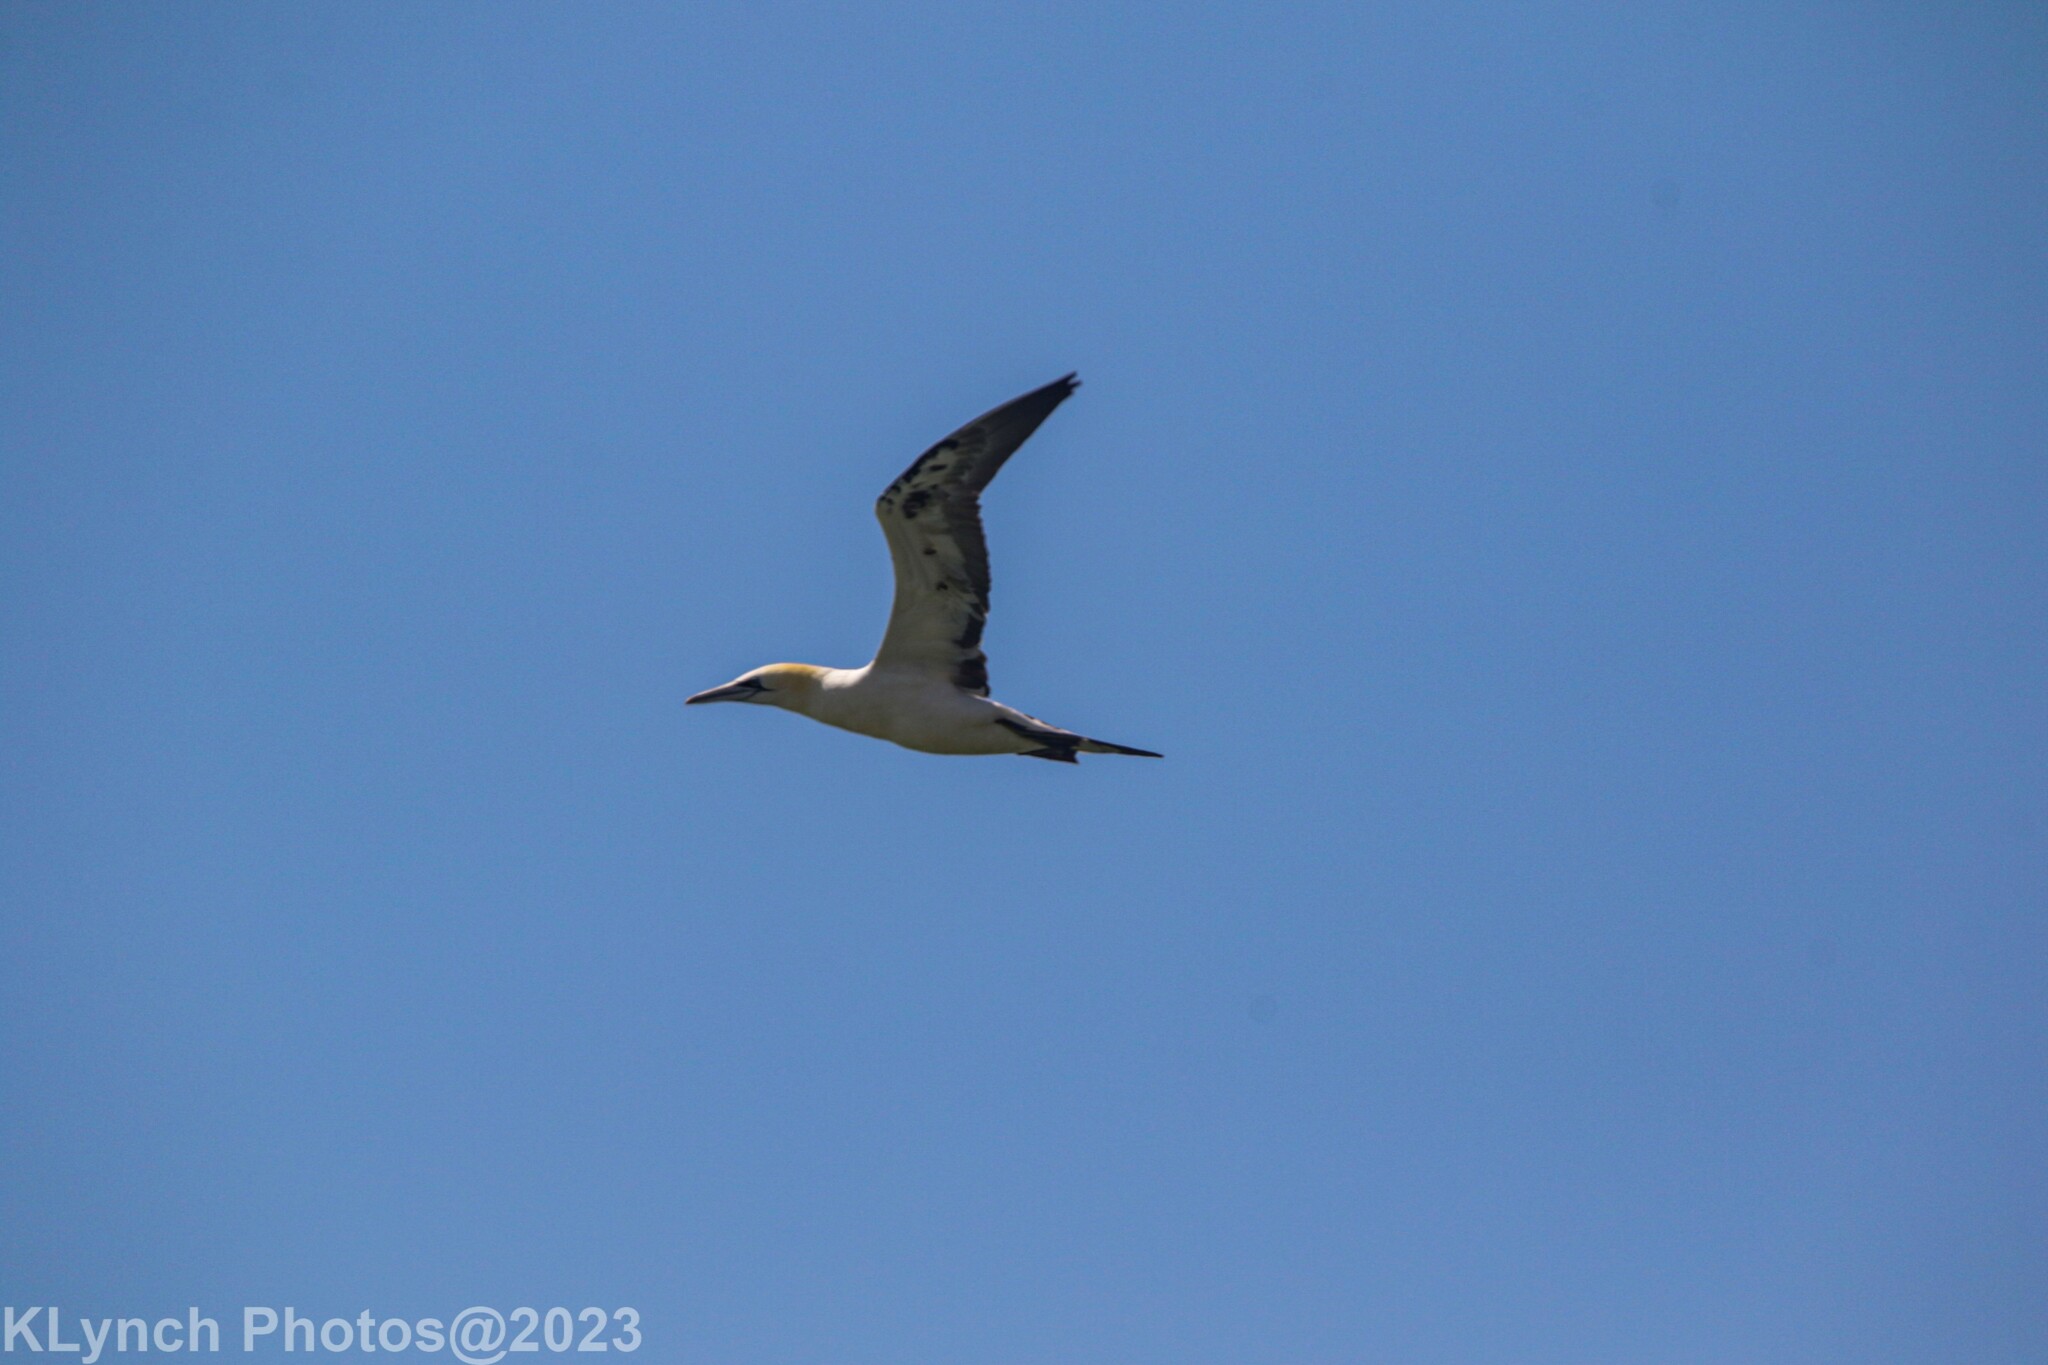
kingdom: Animalia
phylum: Chordata
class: Aves
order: Suliformes
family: Sulidae
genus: Morus
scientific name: Morus bassanus
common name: Northern gannet
